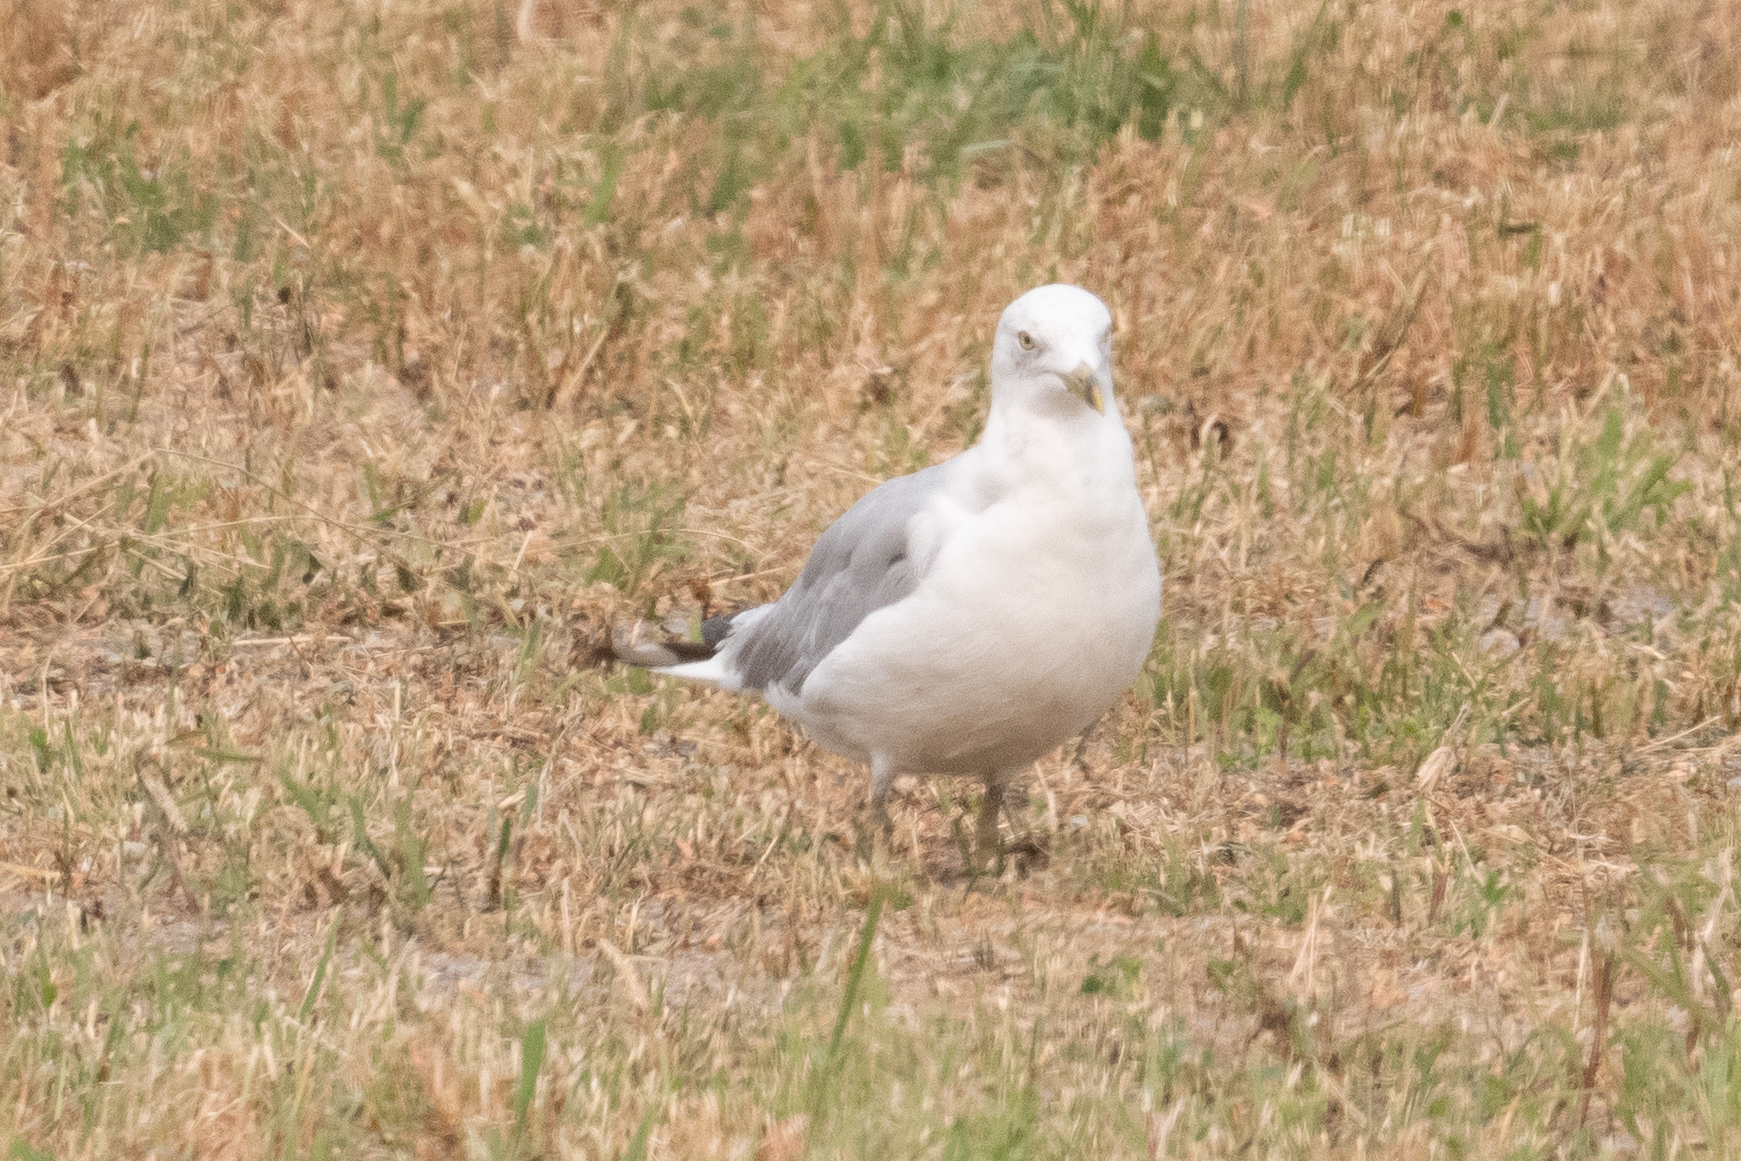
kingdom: Animalia
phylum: Chordata
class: Aves
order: Charadriiformes
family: Laridae
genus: Larus
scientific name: Larus delawarensis
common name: Ring-billed gull
